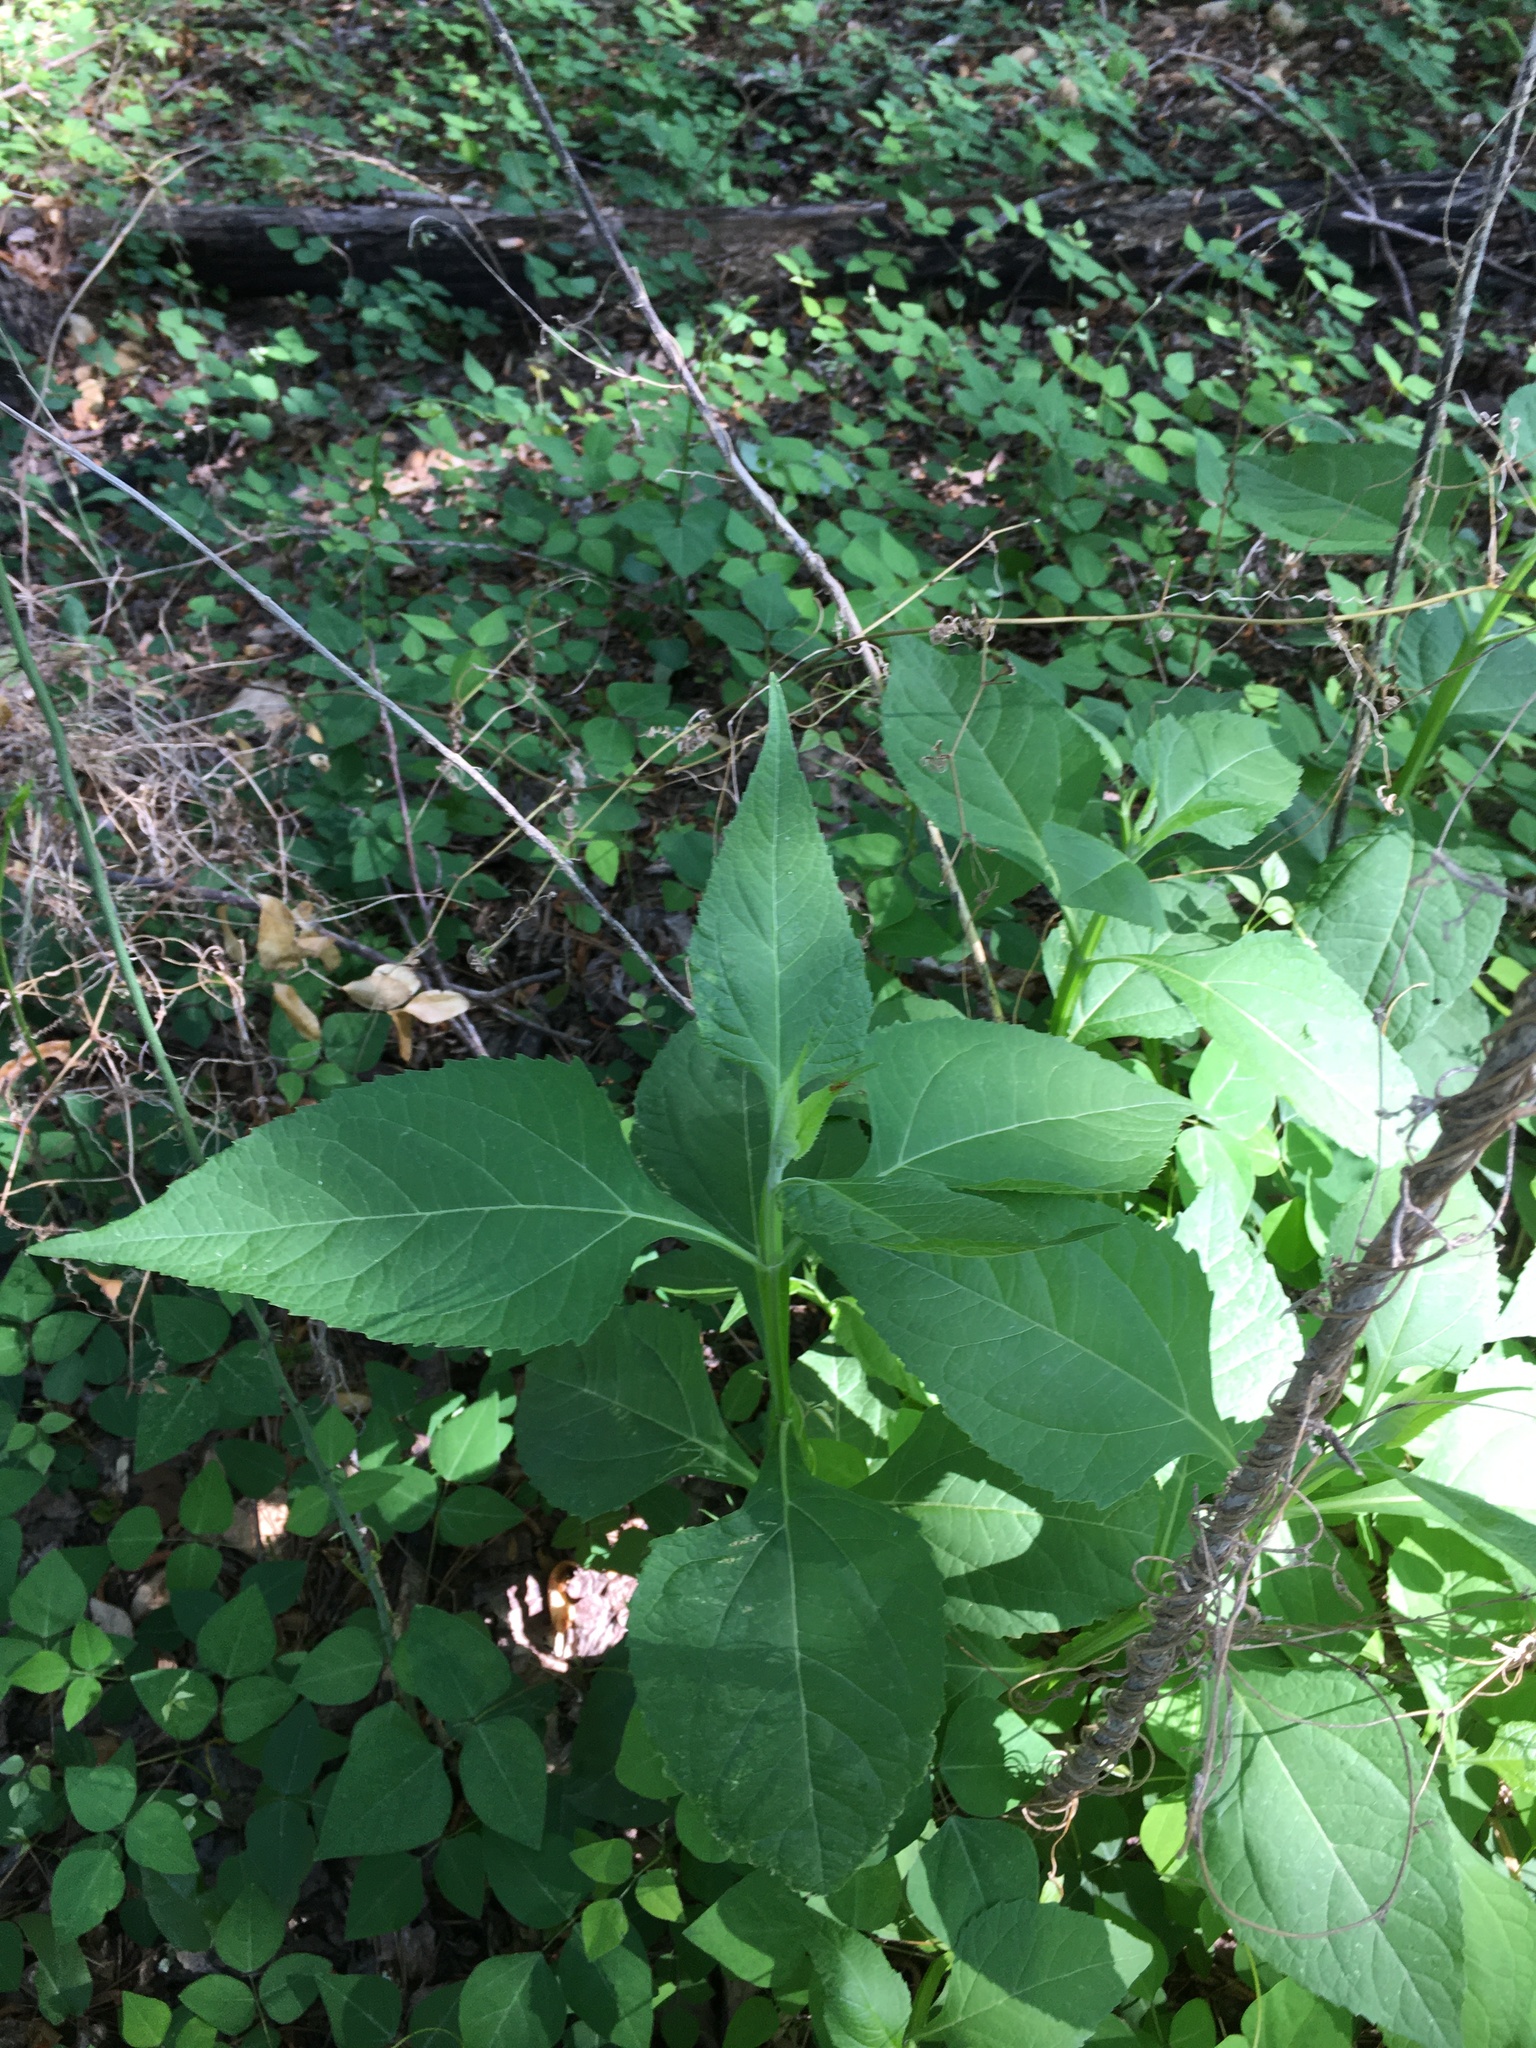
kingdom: Plantae
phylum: Tracheophyta
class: Magnoliopsida
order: Asterales
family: Asteraceae
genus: Verbesina
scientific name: Verbesina occidentalis
